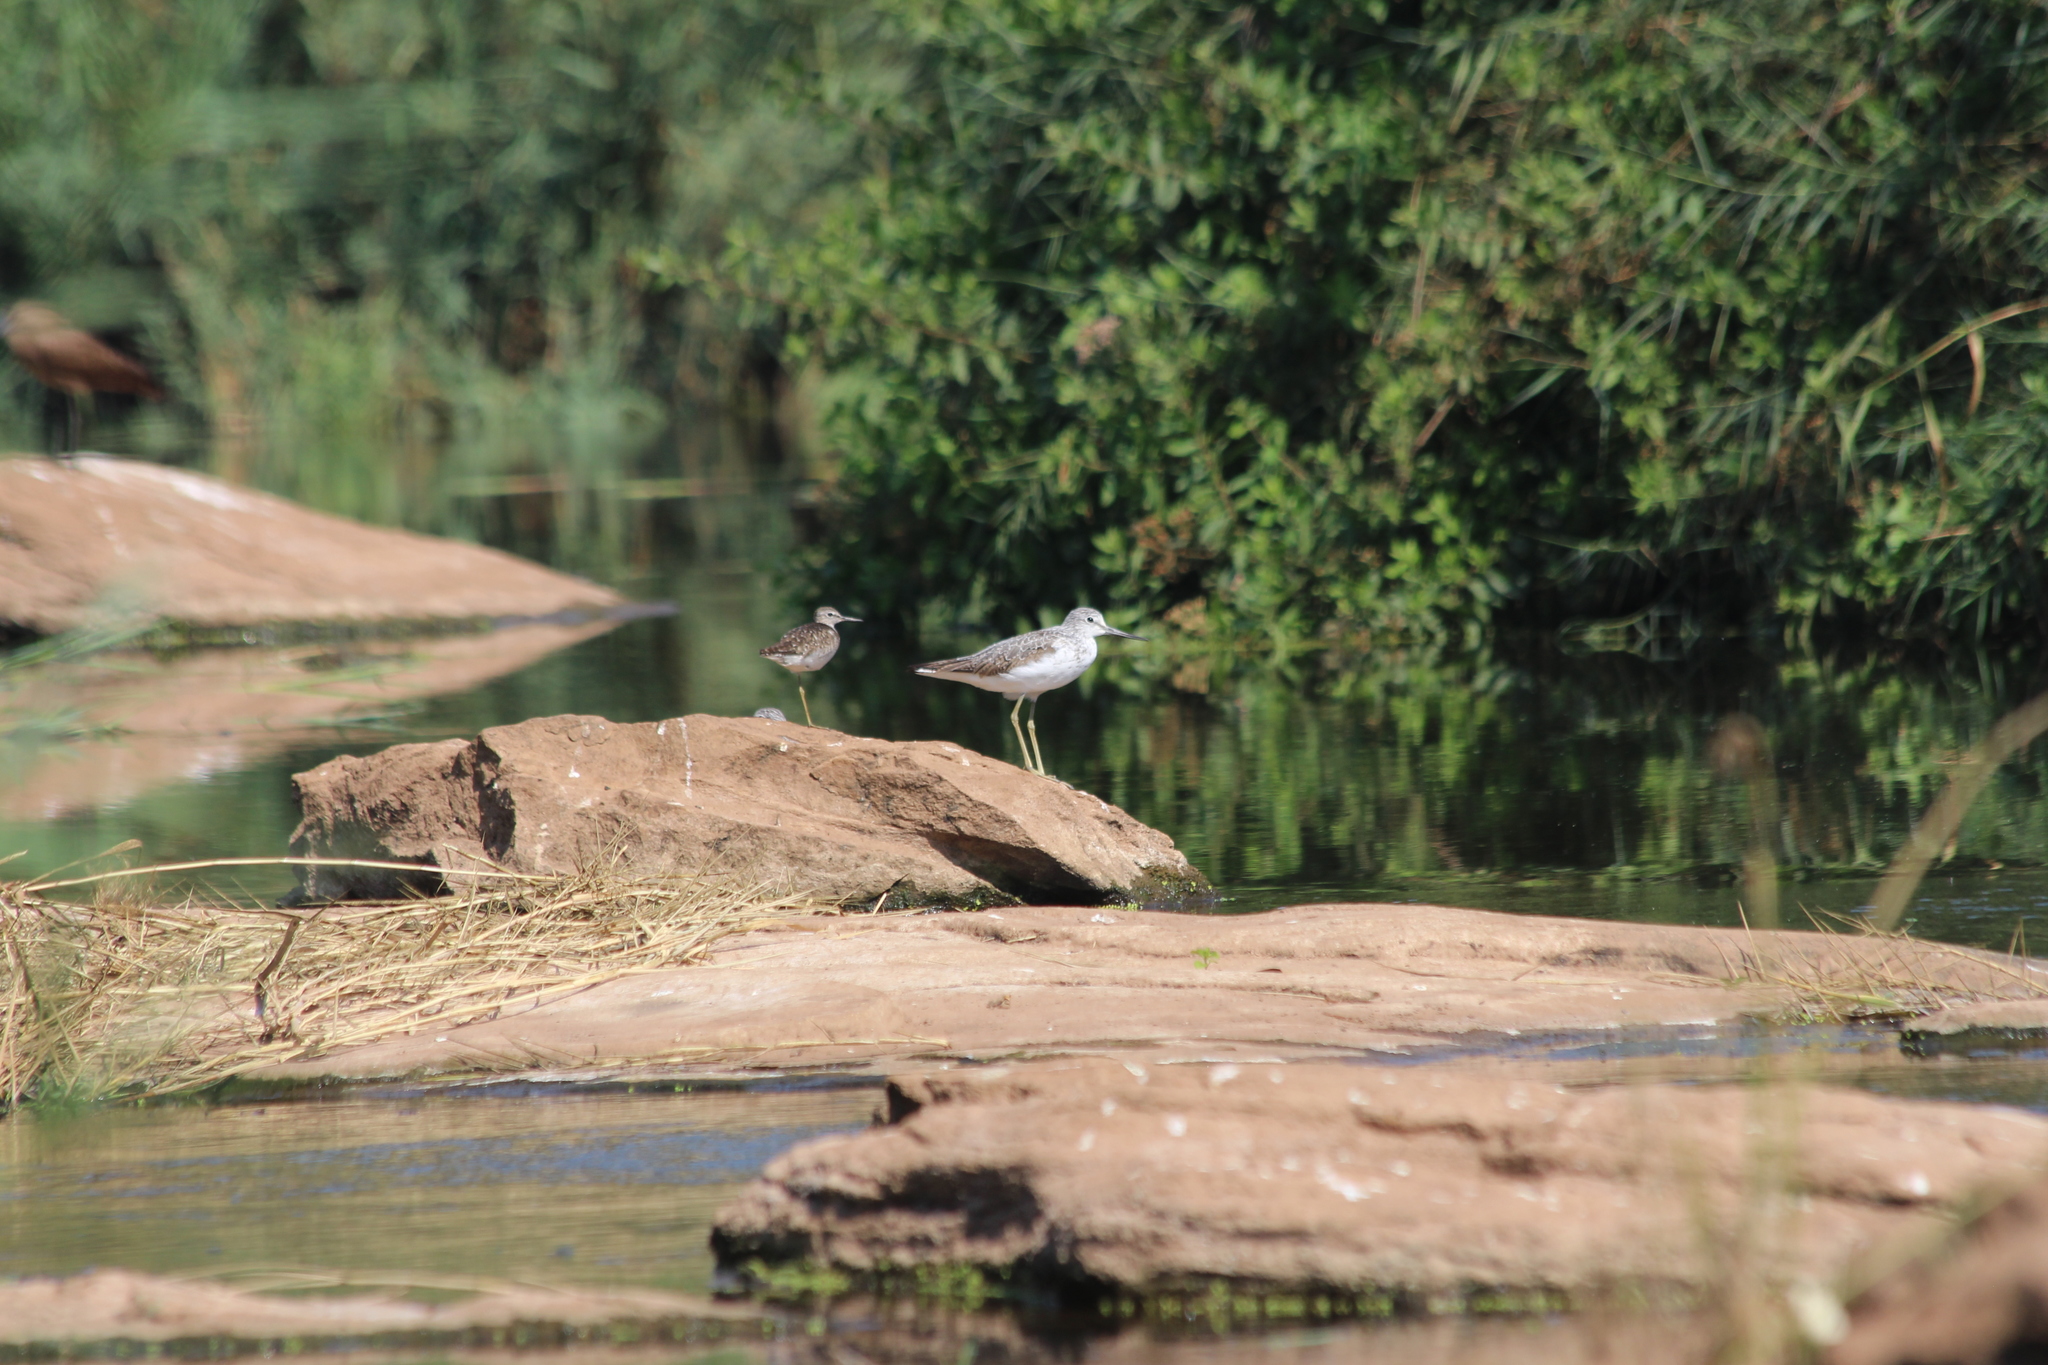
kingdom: Animalia
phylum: Chordata
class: Aves
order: Charadriiformes
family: Scolopacidae
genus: Tringa
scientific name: Tringa nebularia
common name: Common greenshank
